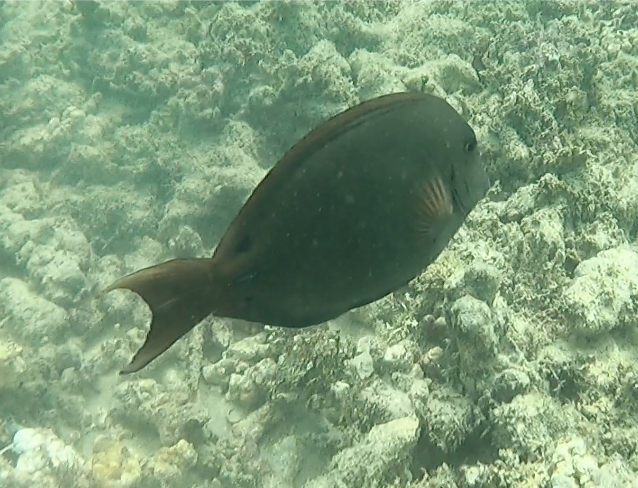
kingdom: Animalia
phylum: Chordata
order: Perciformes
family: Acanthuridae
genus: Acanthurus
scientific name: Acanthurus nigrofuscus
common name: Blackspot surgeonfish
